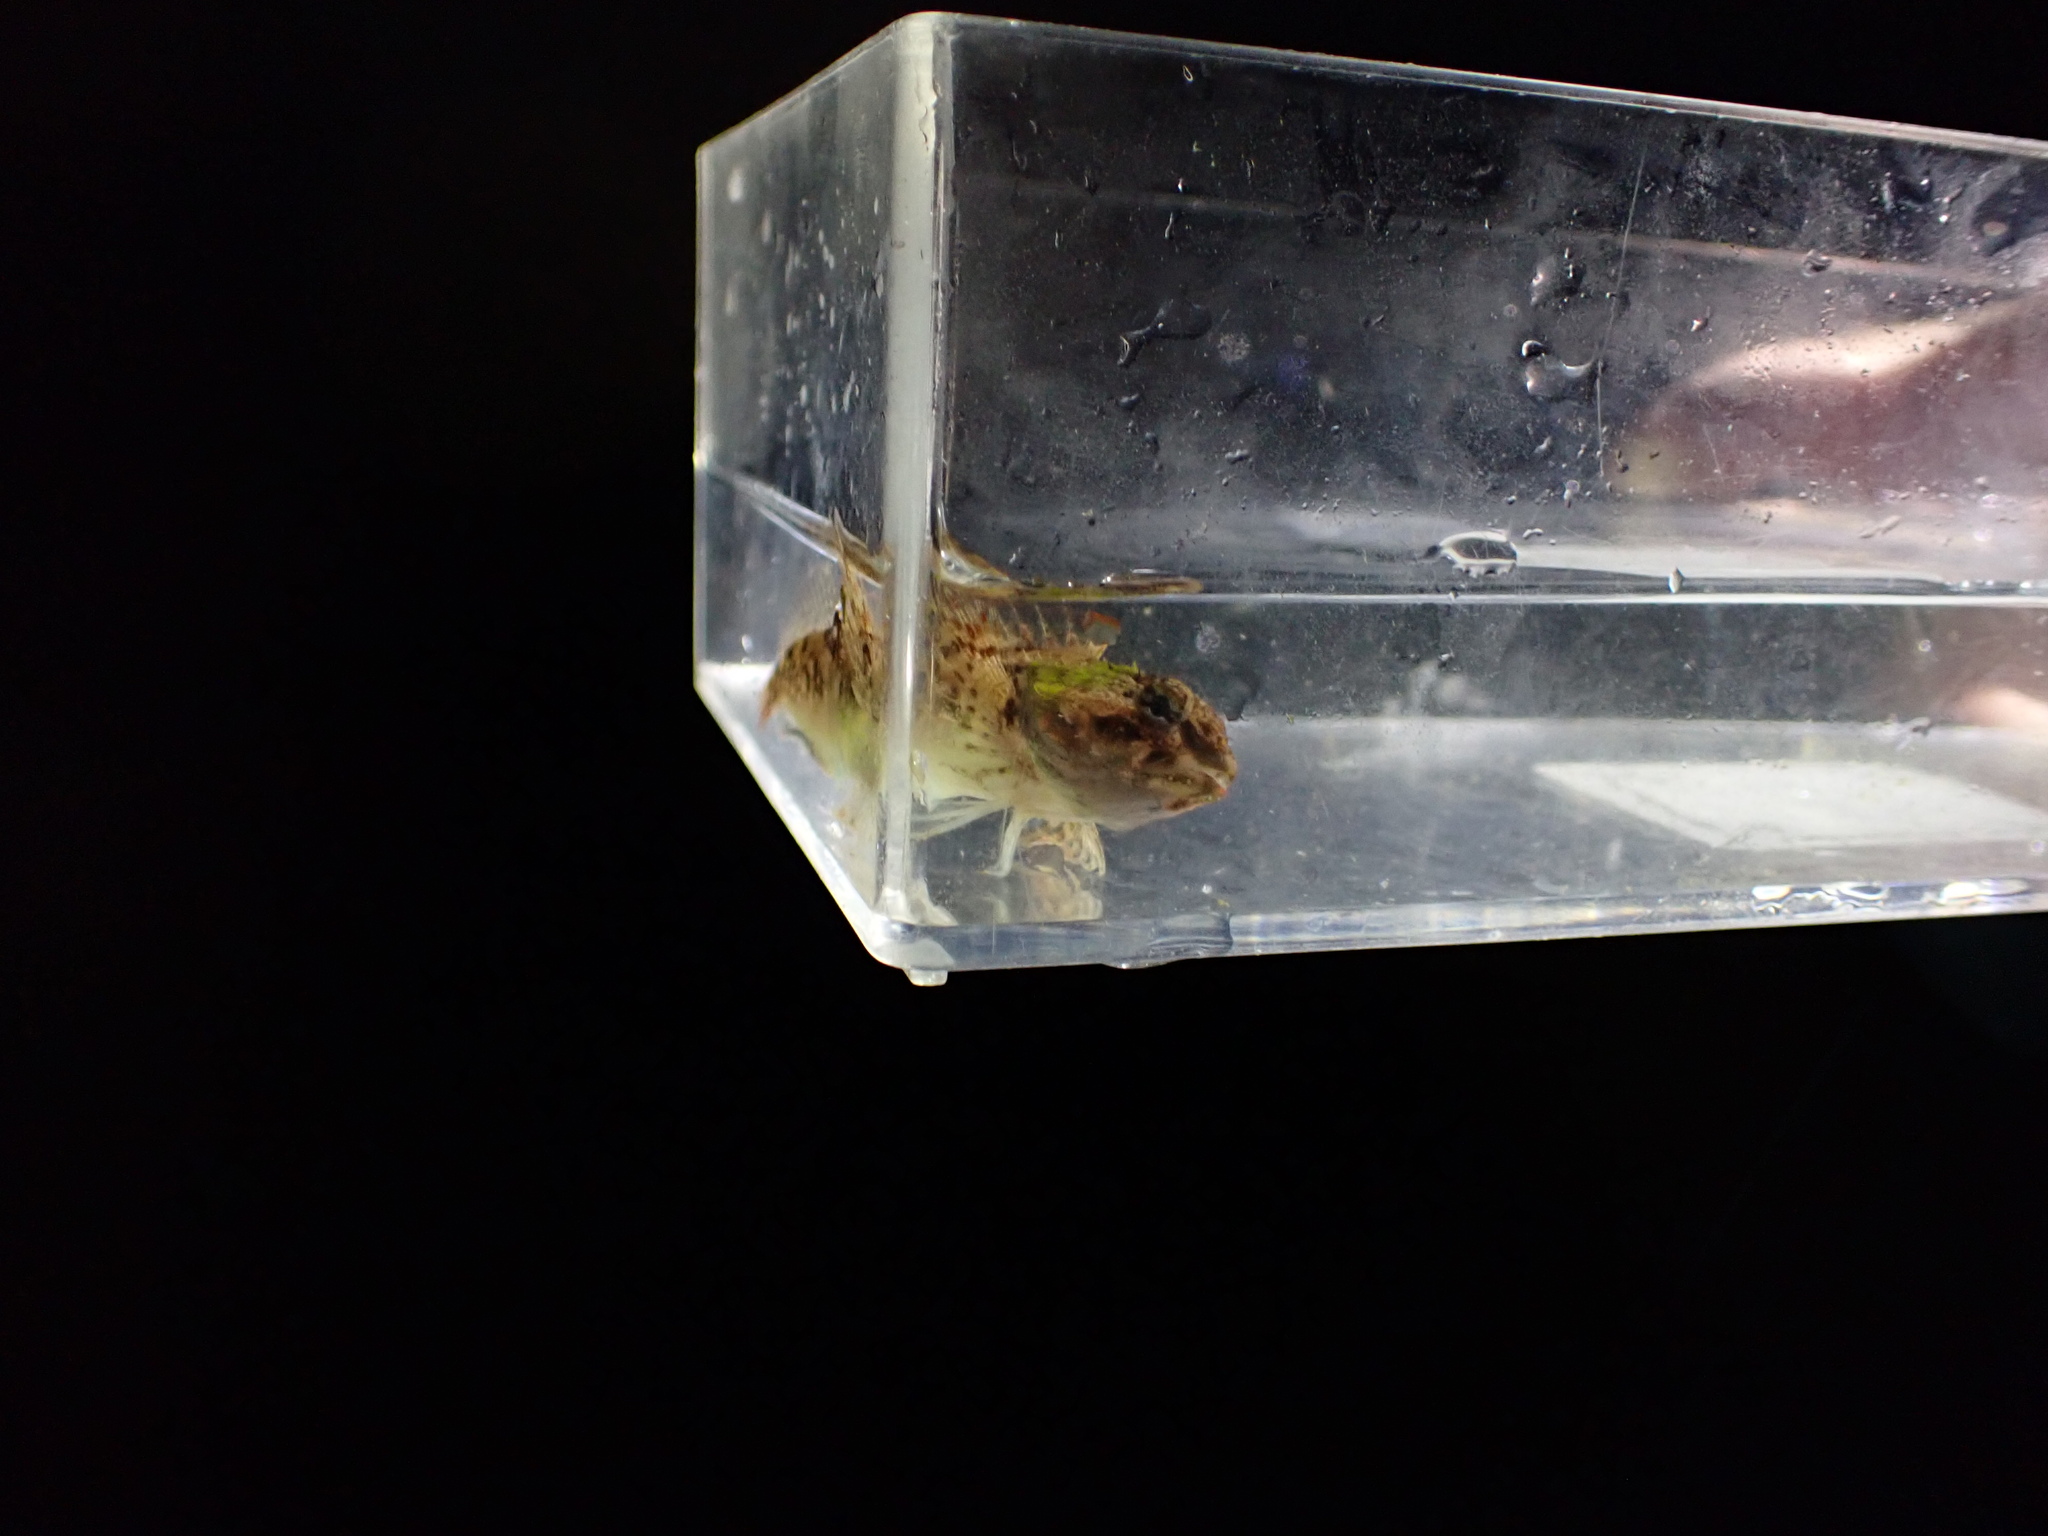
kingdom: Animalia
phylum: Chordata
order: Scorpaeniformes
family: Cottidae
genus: Oligocottus
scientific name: Oligocottus maculosus
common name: Tidepool sculpin
